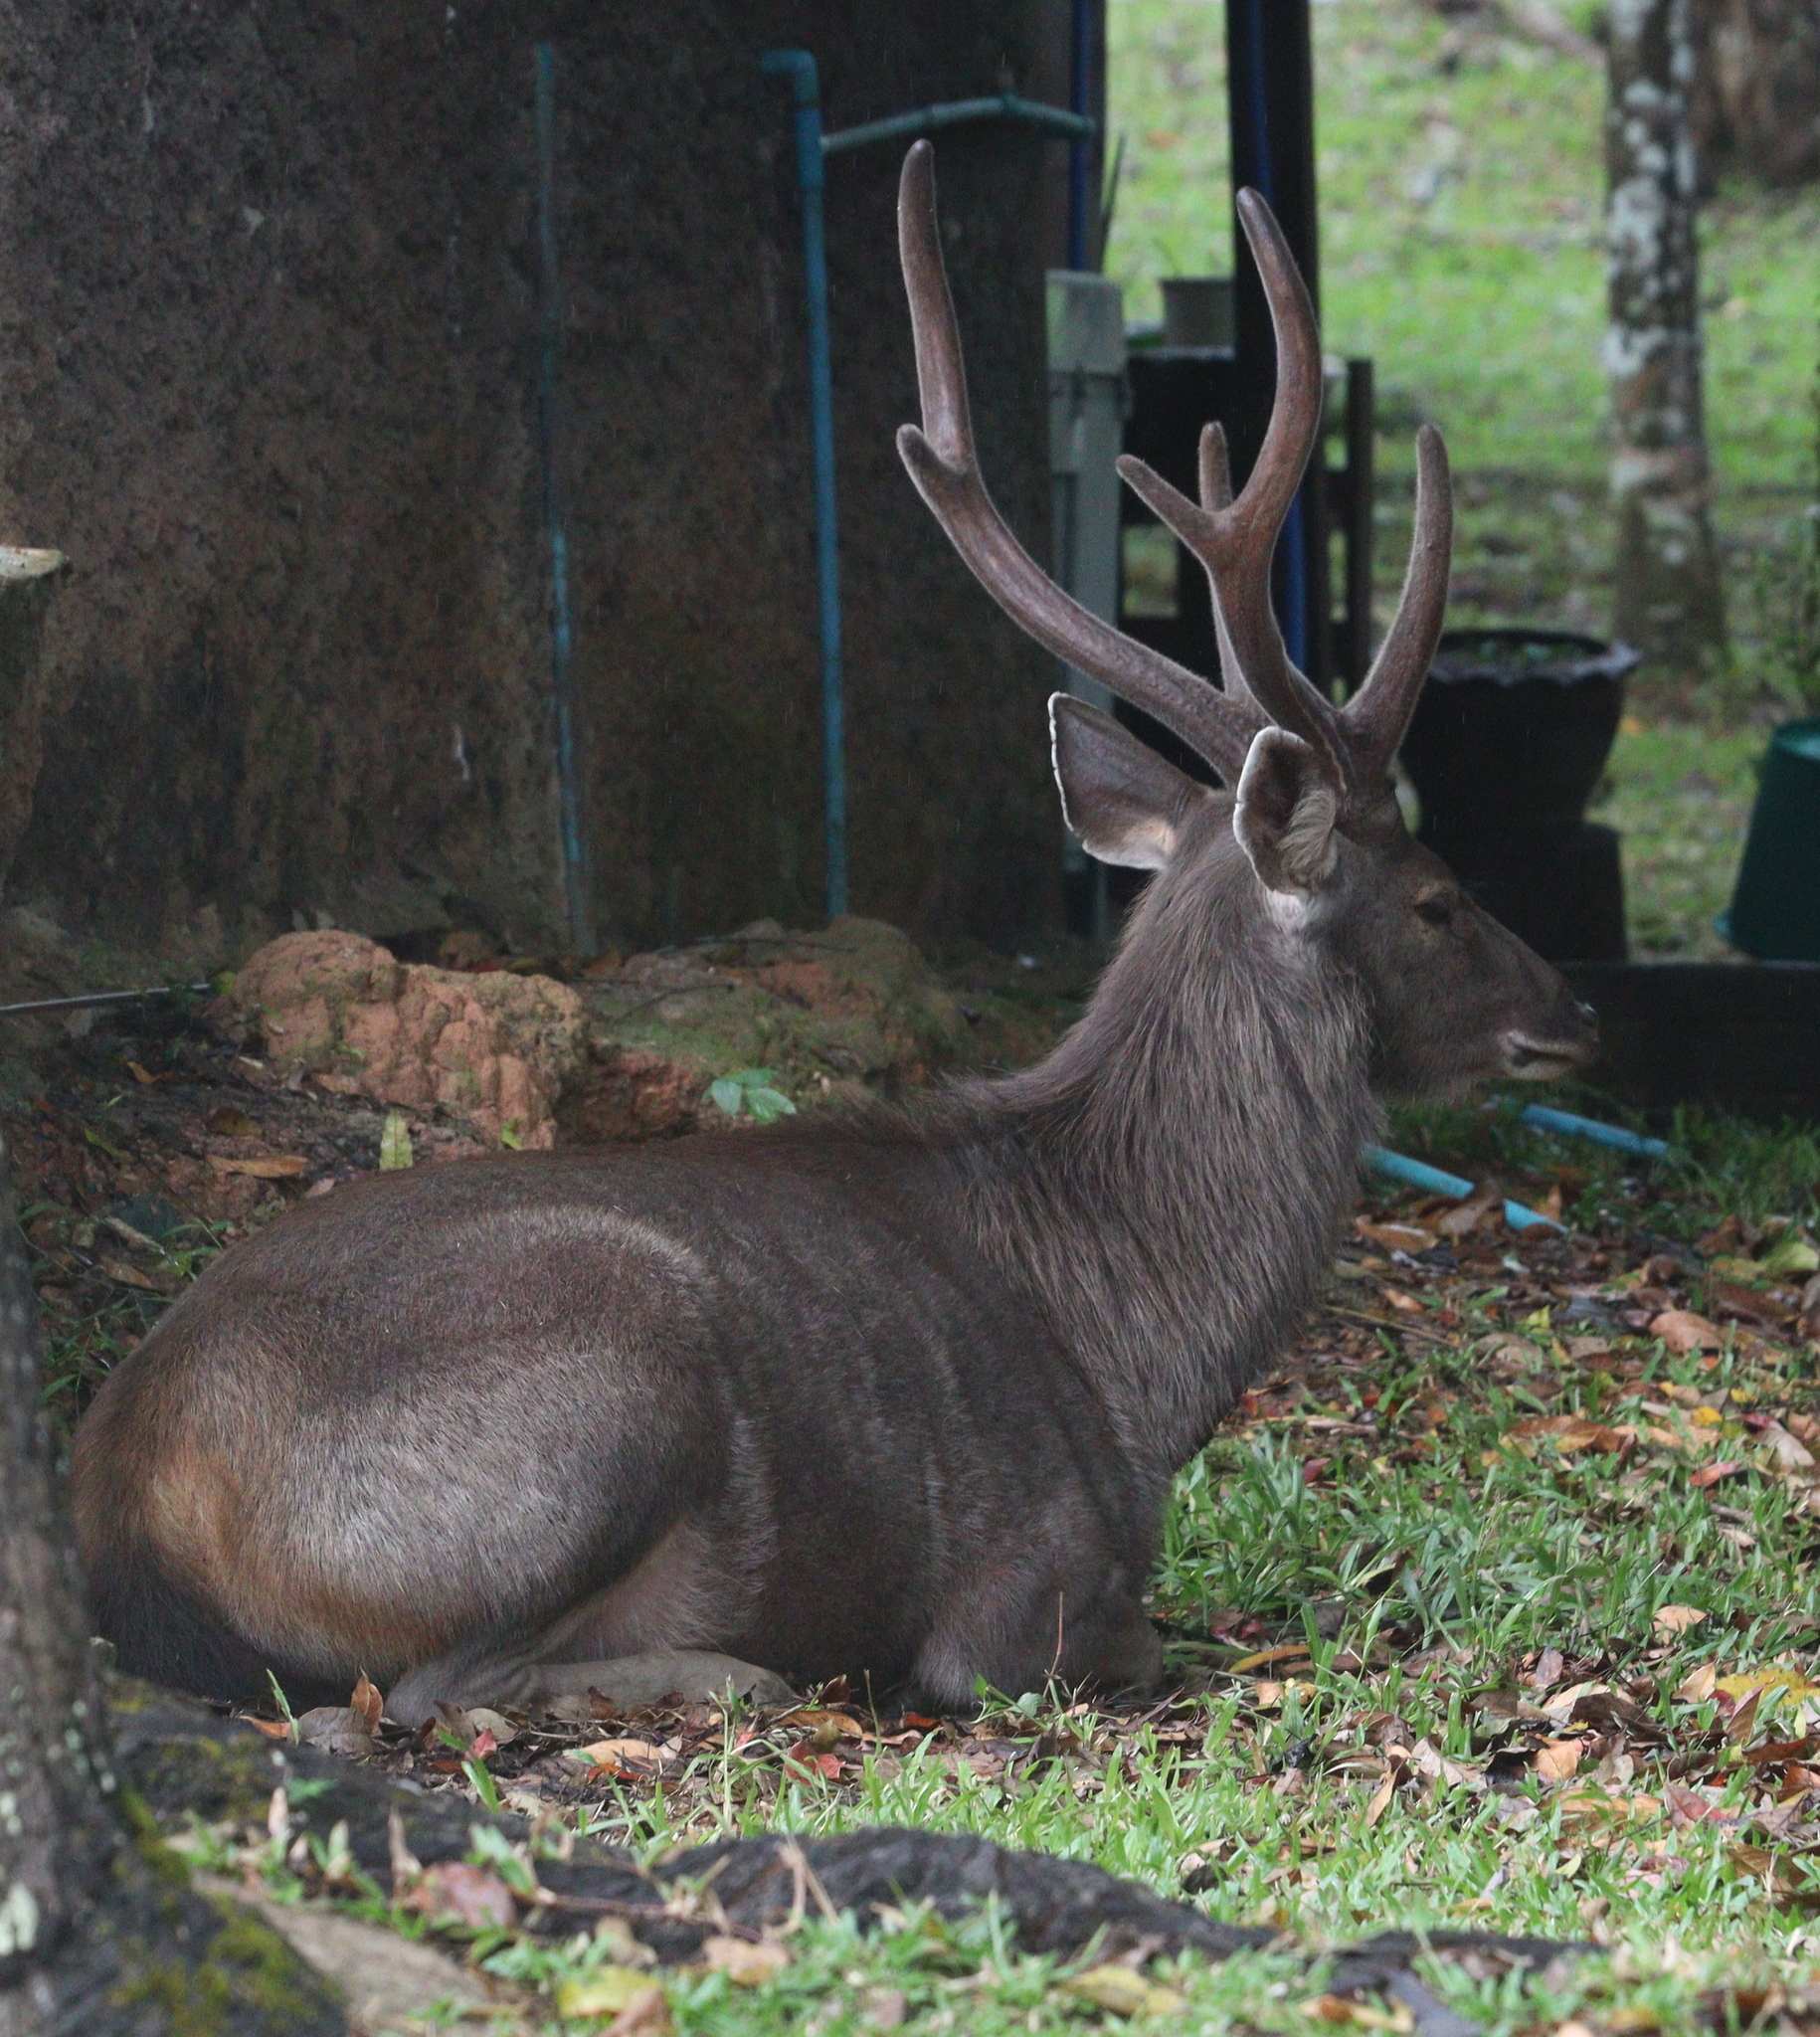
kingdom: Animalia
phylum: Chordata
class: Mammalia
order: Artiodactyla
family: Cervidae
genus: Rusa
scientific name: Rusa unicolor
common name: Sambar
